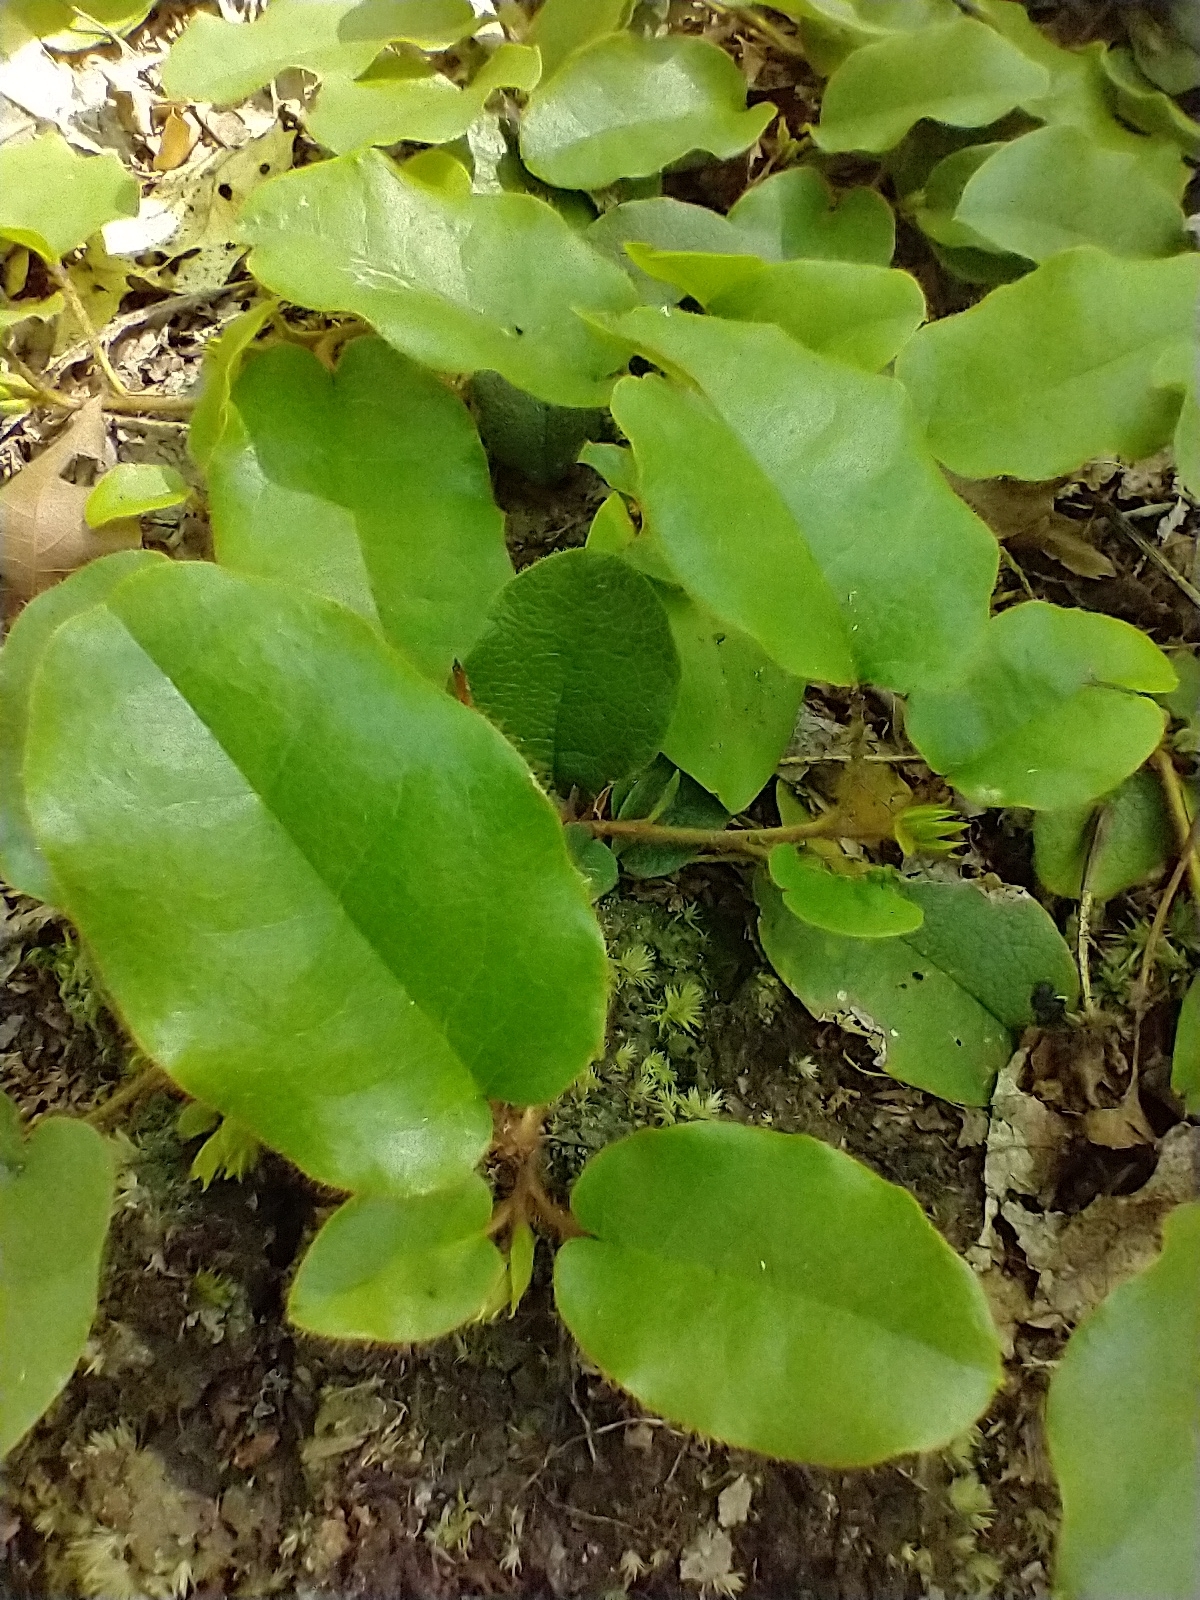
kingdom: Plantae
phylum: Tracheophyta
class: Magnoliopsida
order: Ericales
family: Ericaceae
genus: Epigaea
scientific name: Epigaea repens
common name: Gravelroot
